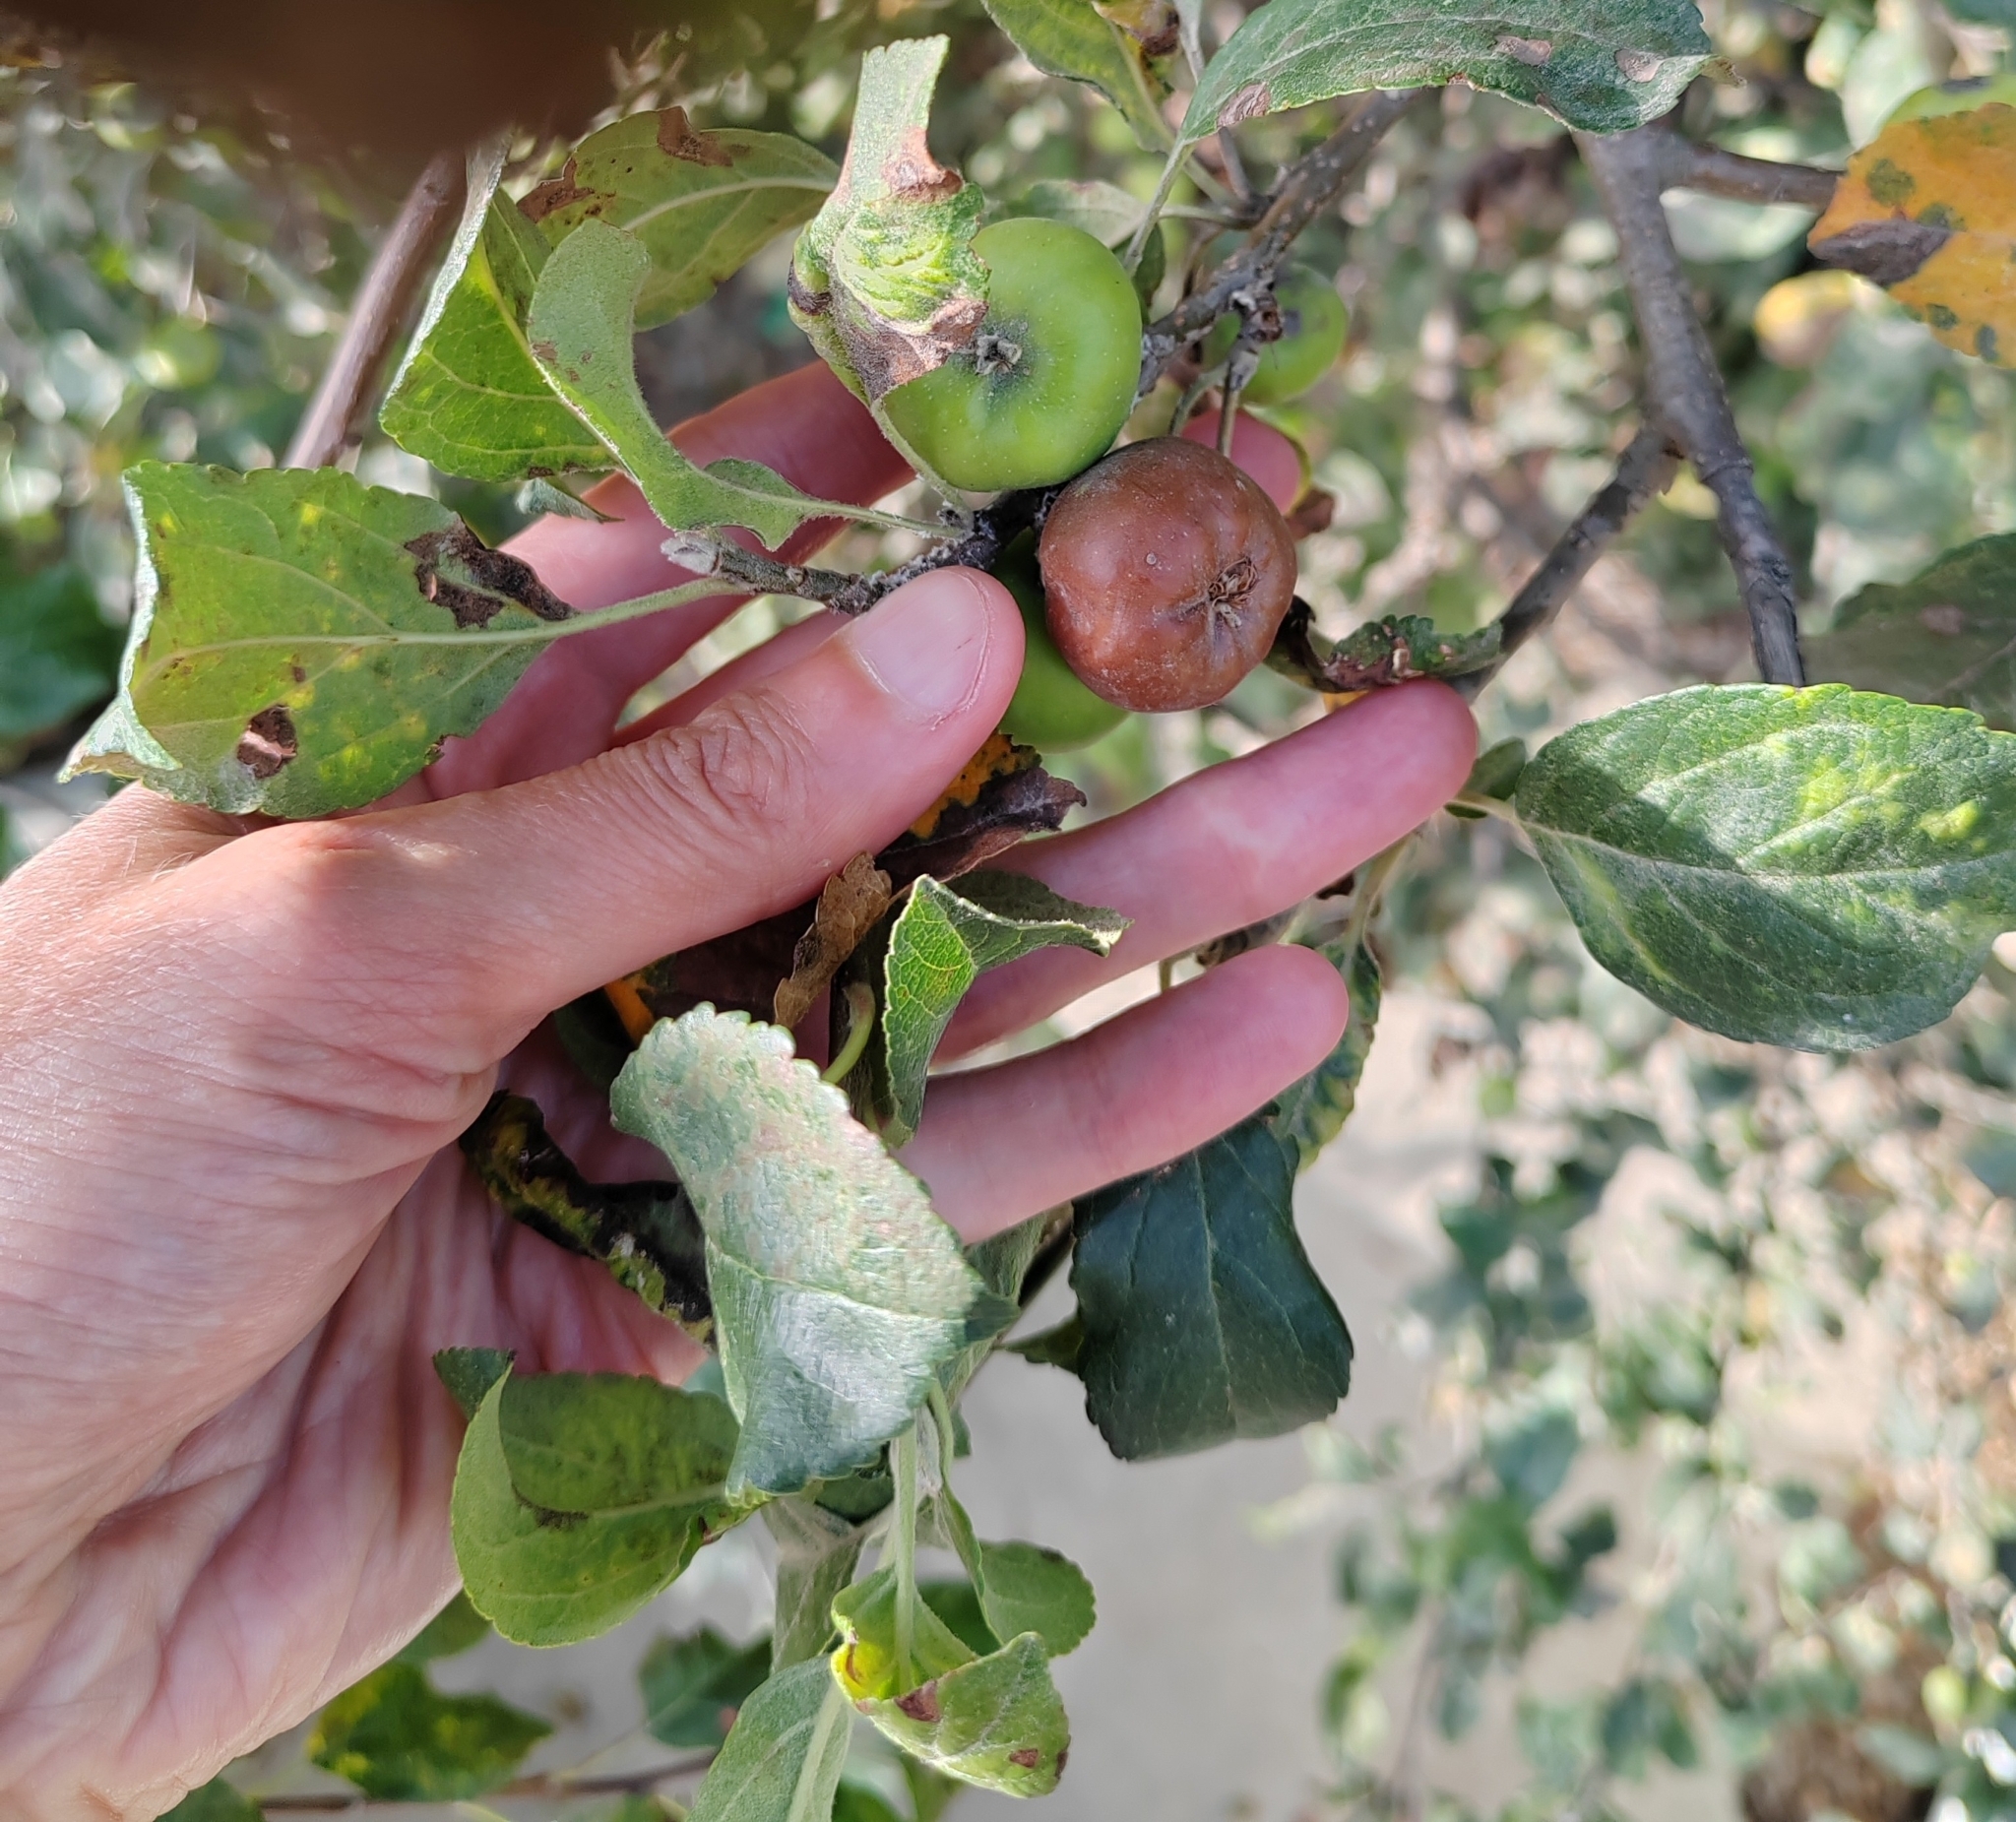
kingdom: Plantae
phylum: Tracheophyta
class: Magnoliopsida
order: Rosales
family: Rosaceae
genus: Malus
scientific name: Malus domestica
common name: Apple
